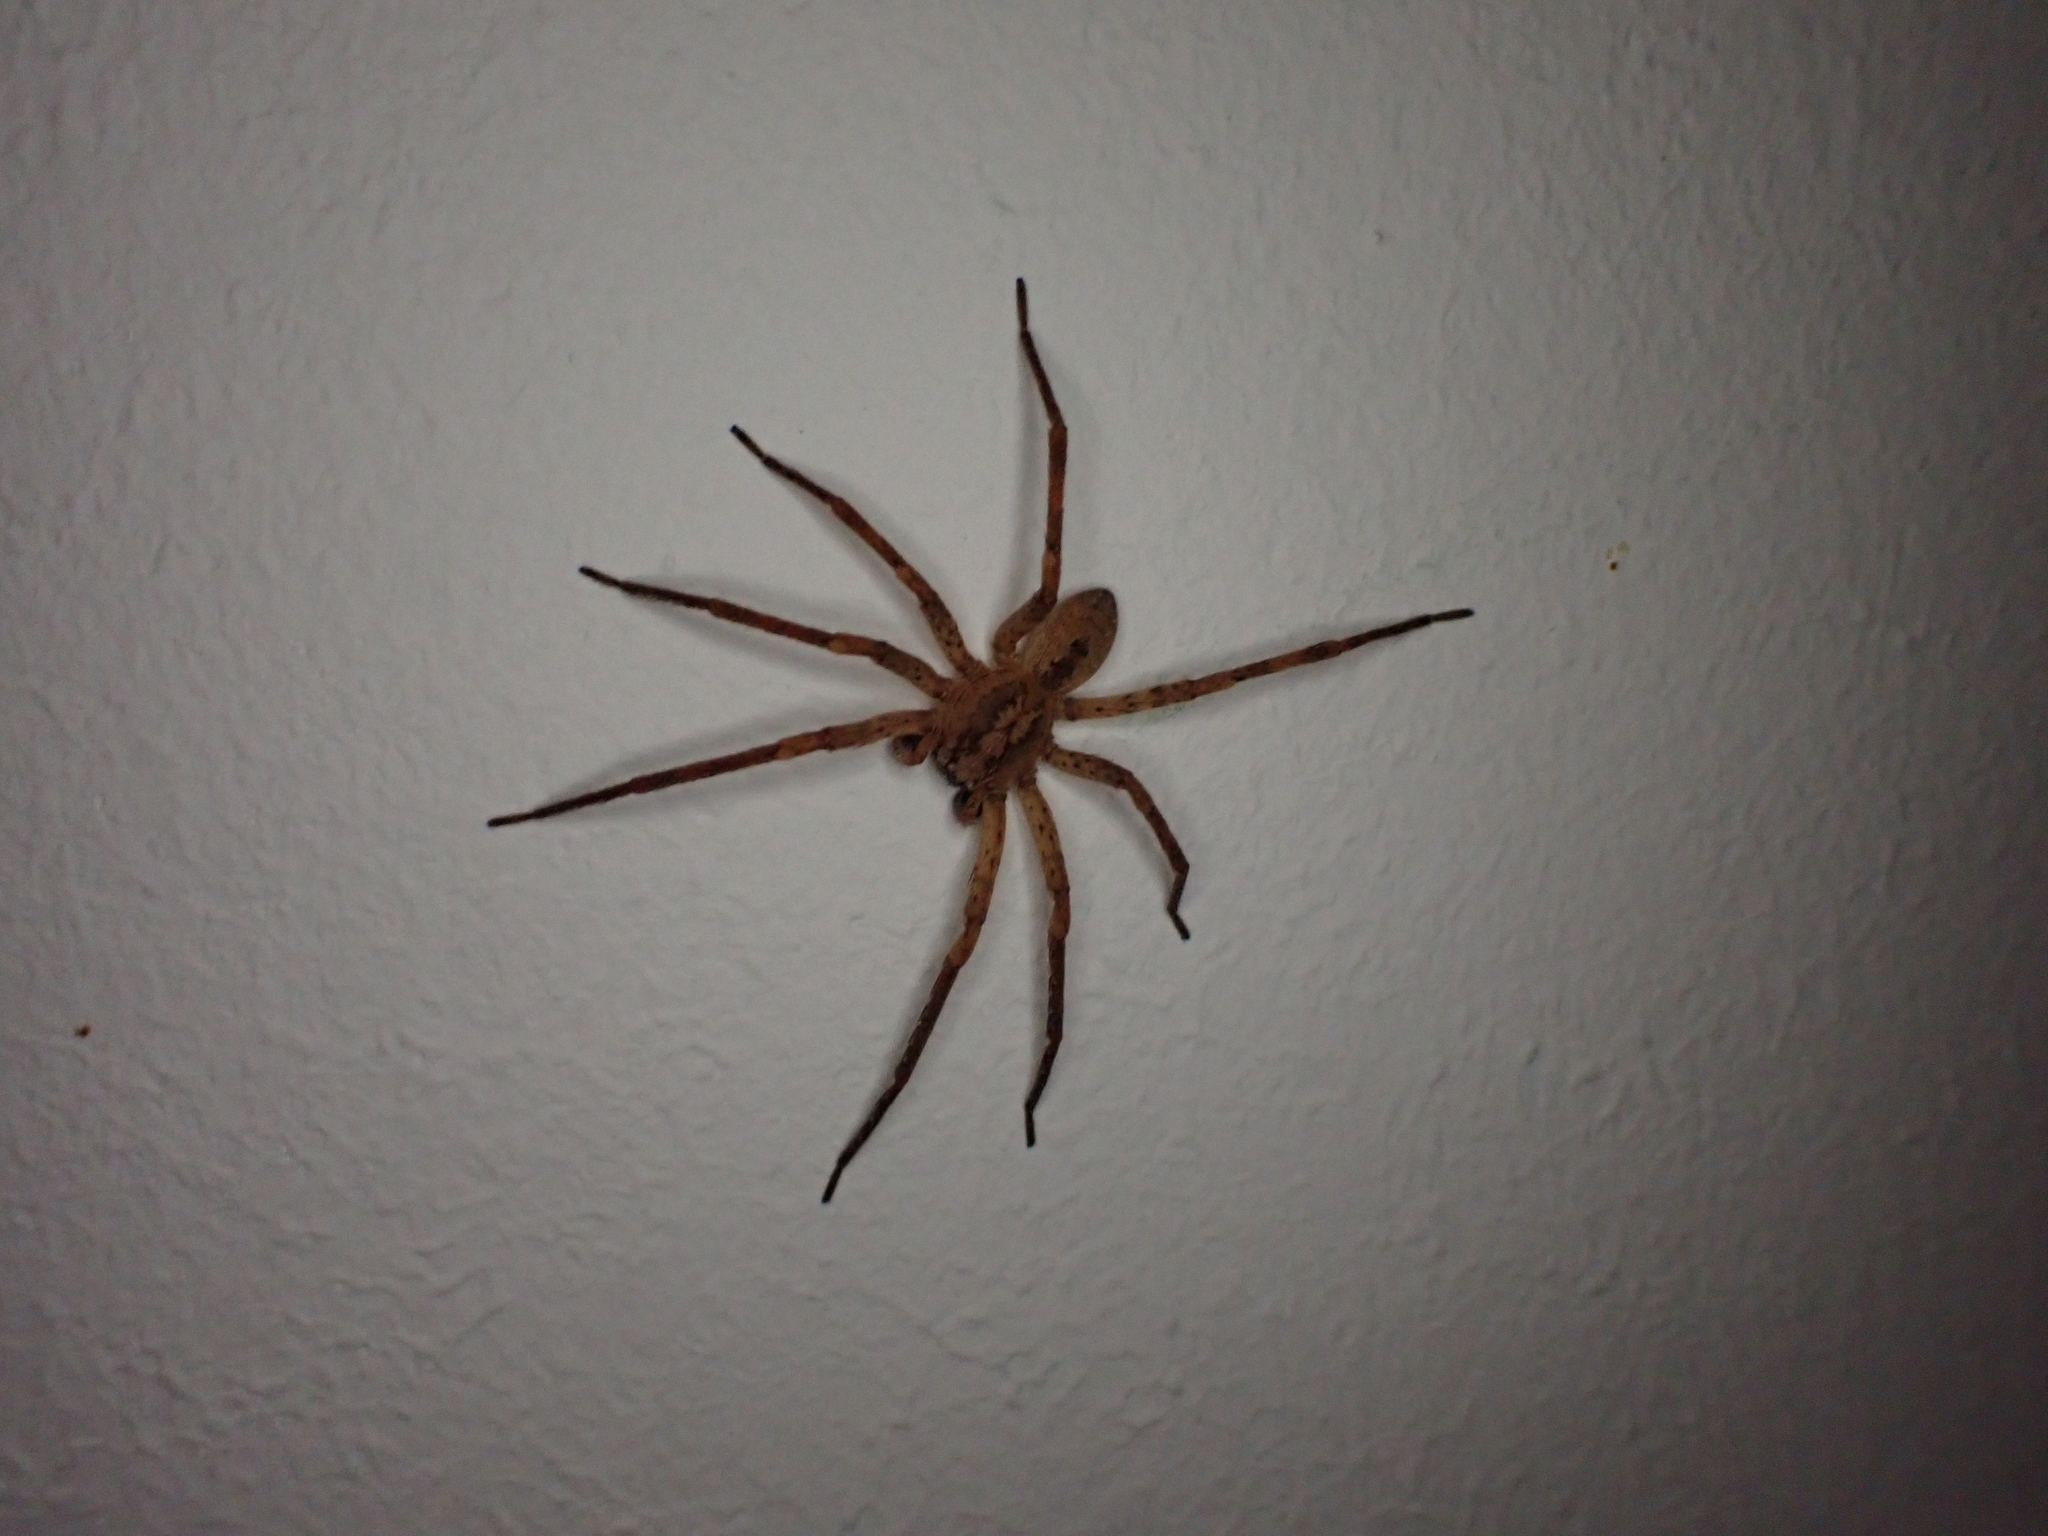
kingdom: Animalia
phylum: Arthropoda
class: Arachnida
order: Araneae
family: Zoropsidae
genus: Zoropsis
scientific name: Zoropsis spinimana
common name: Zoropsid spider
